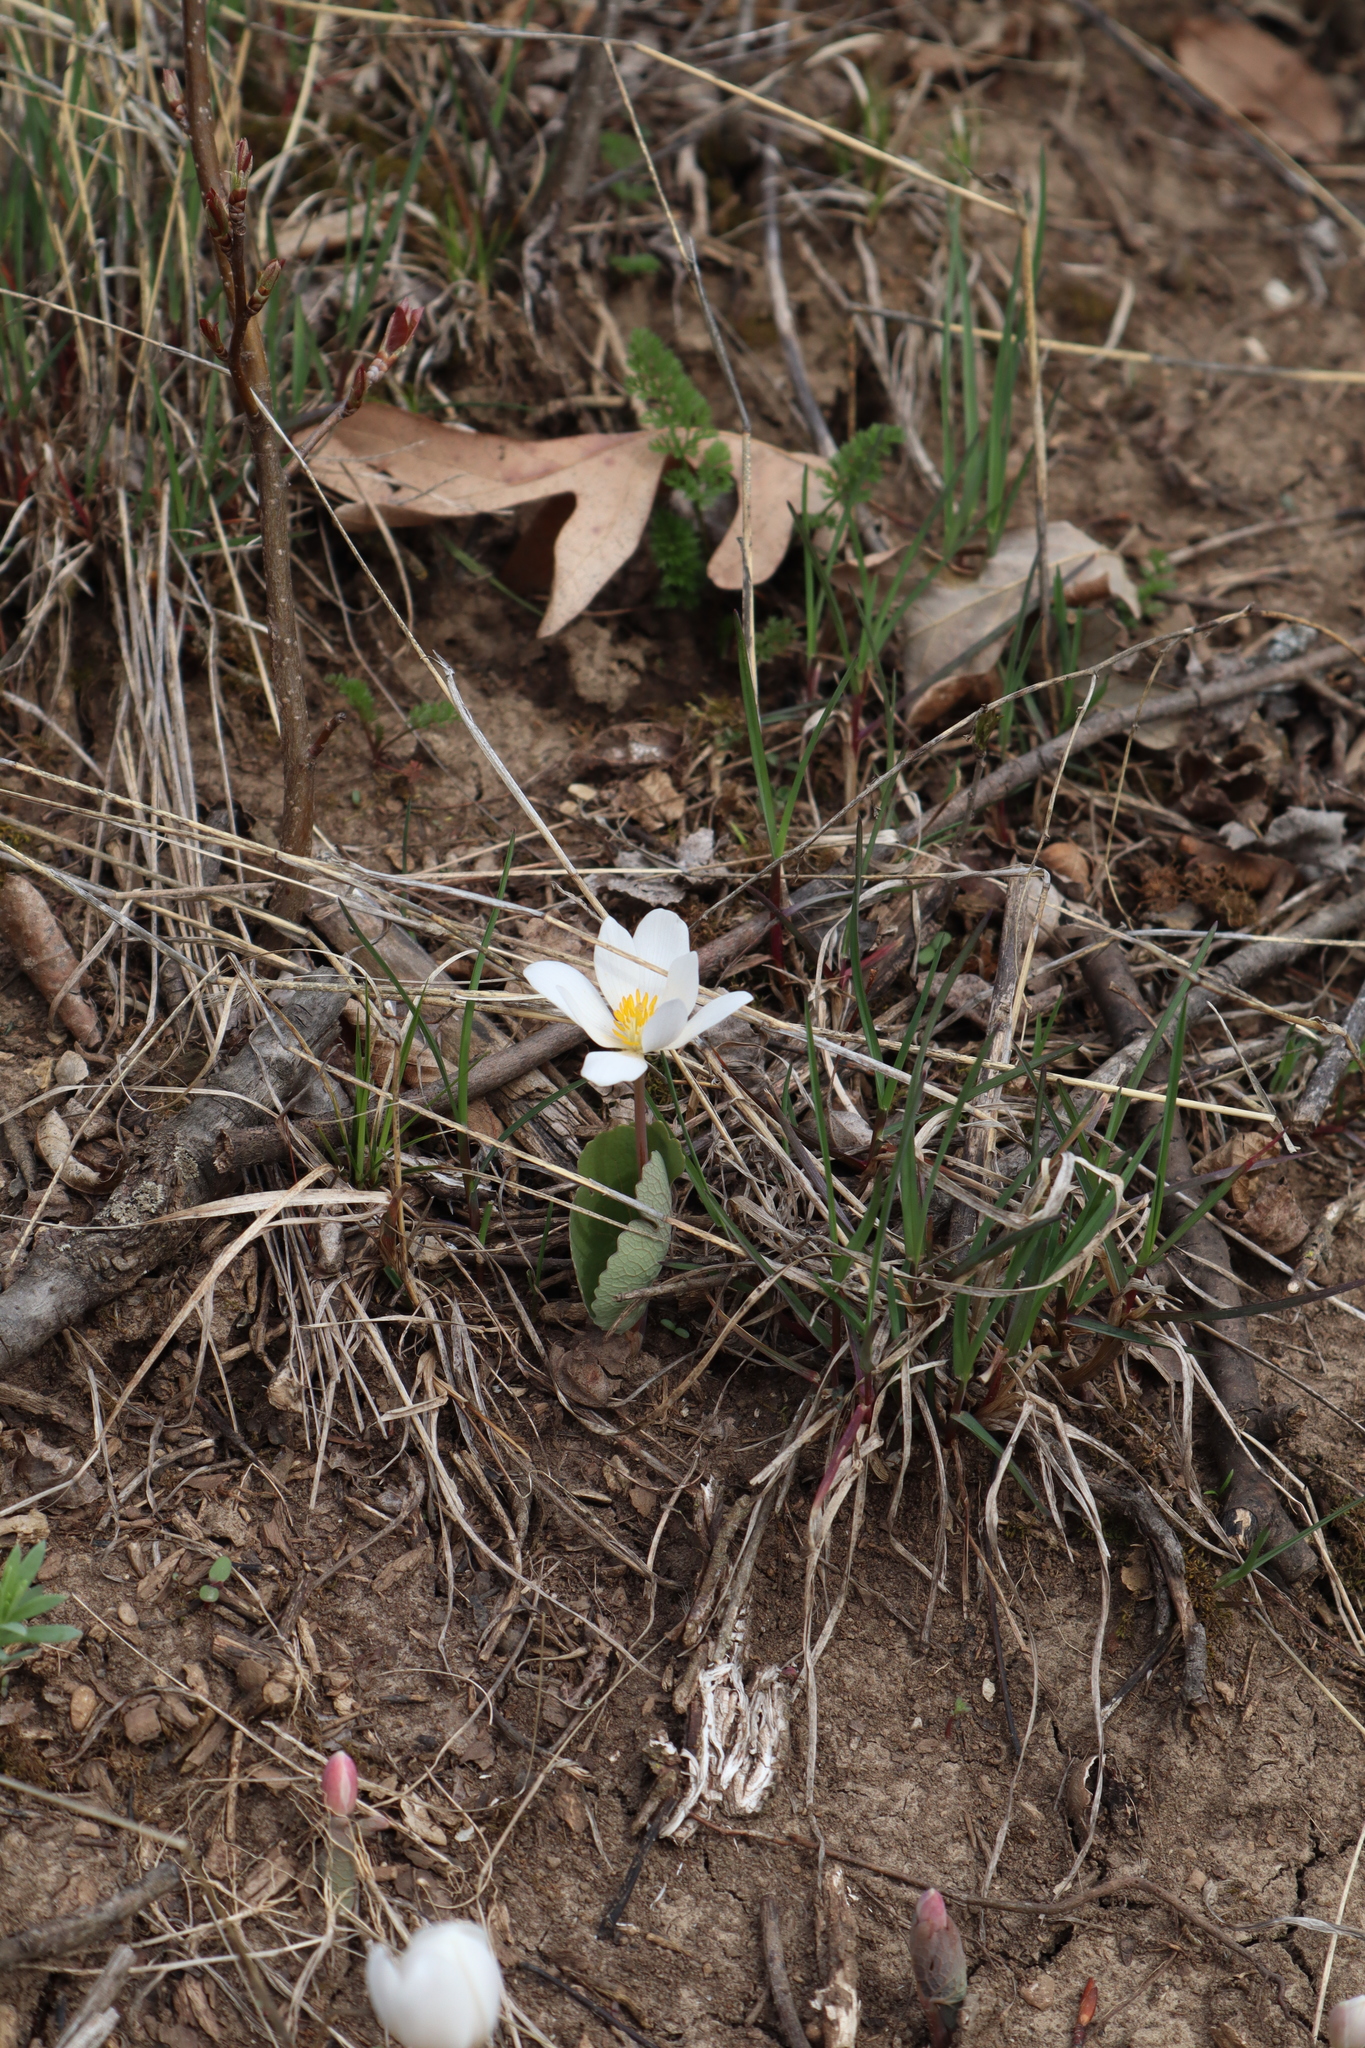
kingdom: Plantae
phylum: Tracheophyta
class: Magnoliopsida
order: Ranunculales
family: Papaveraceae
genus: Sanguinaria
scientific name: Sanguinaria canadensis
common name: Bloodroot
